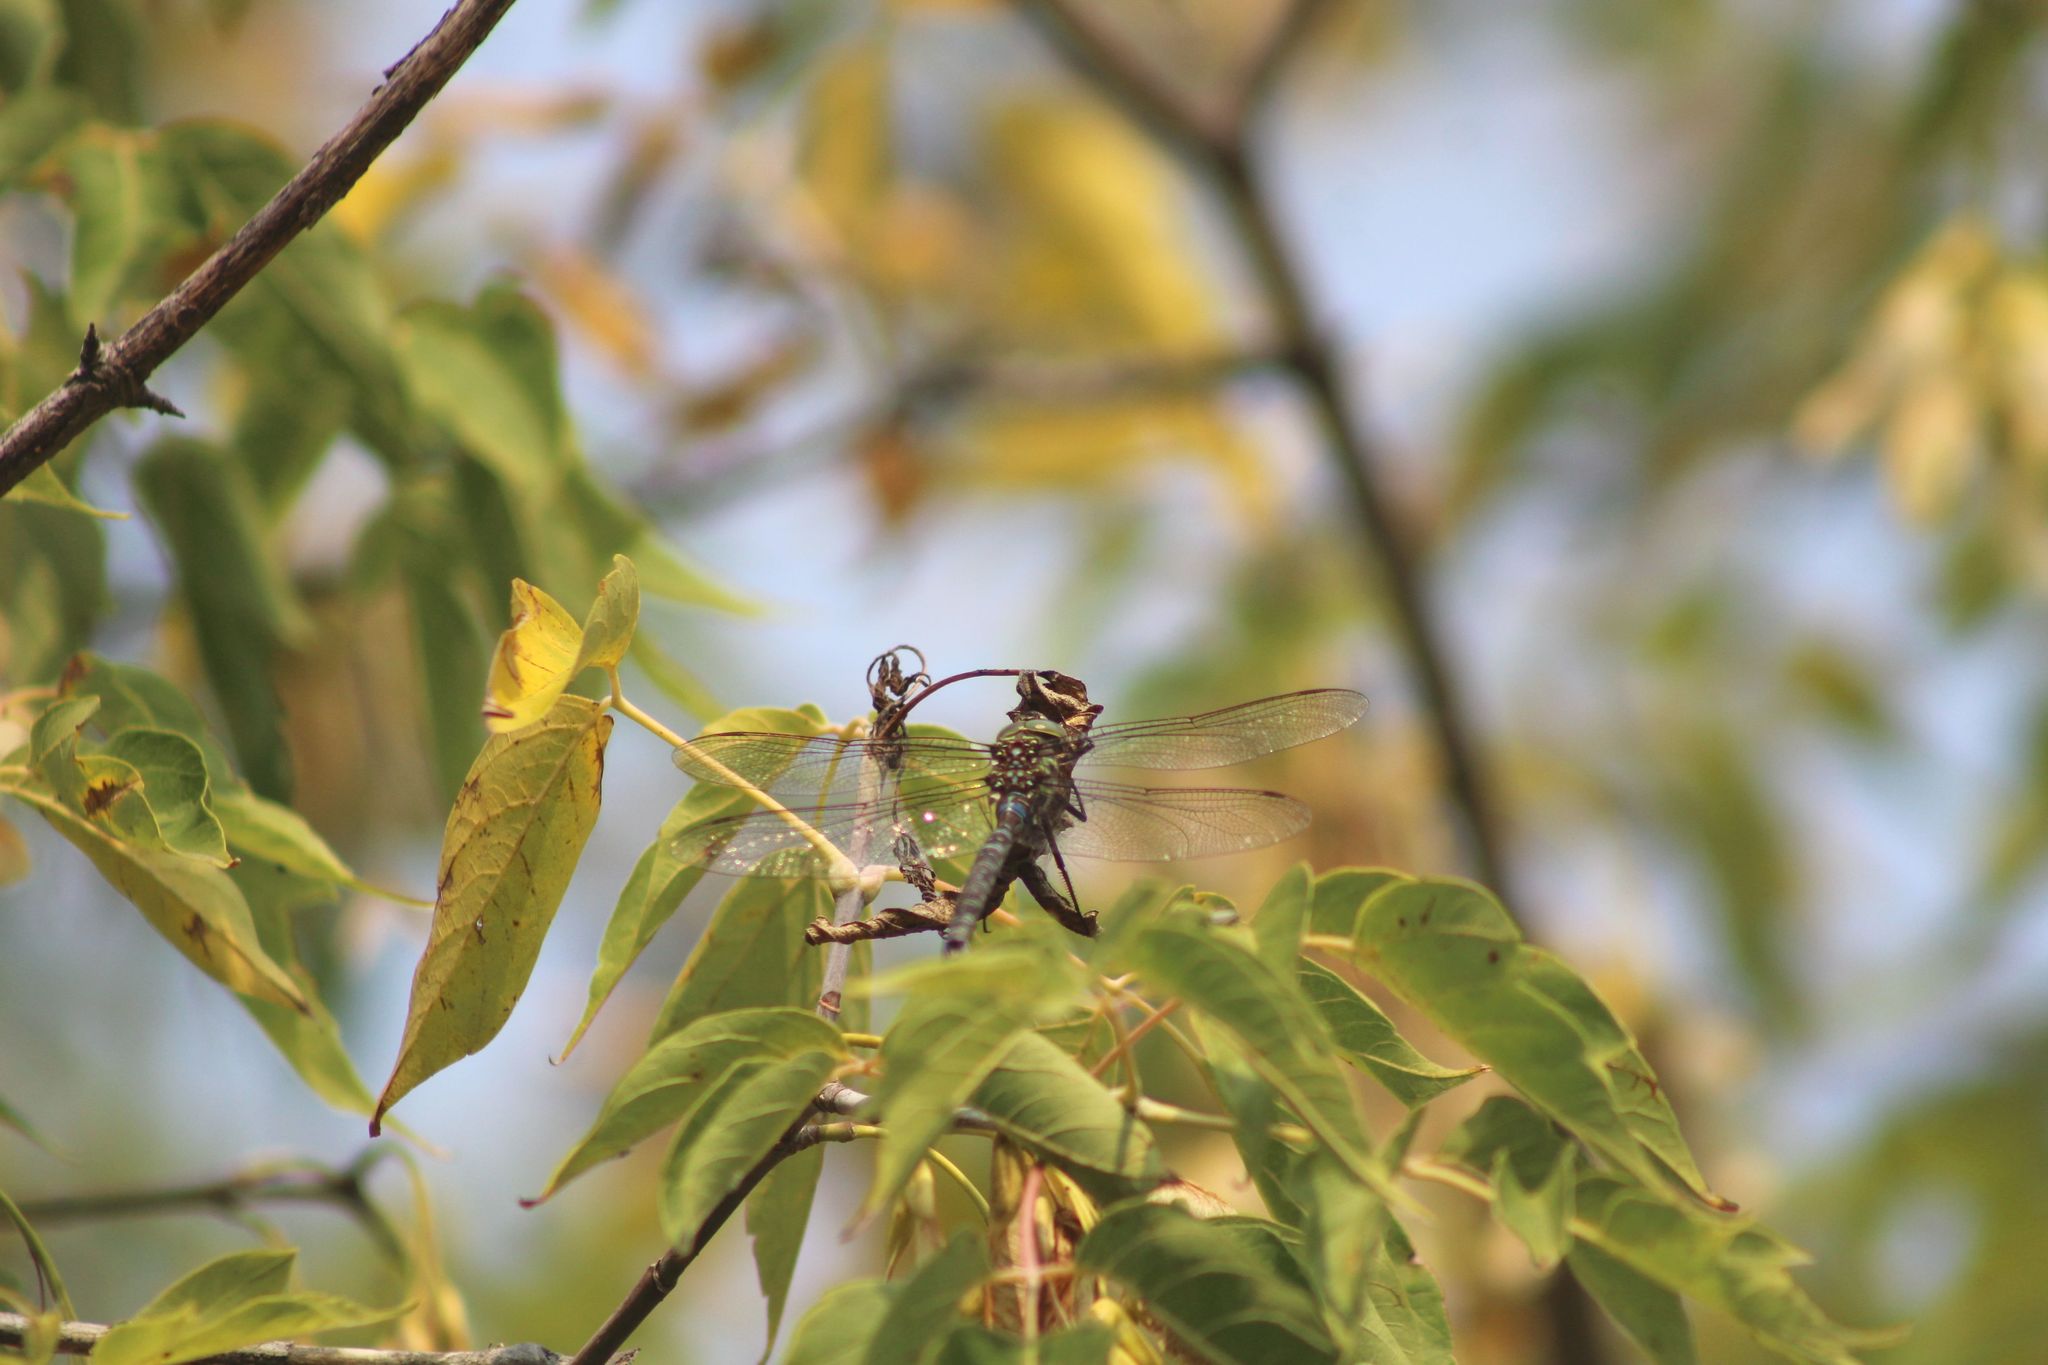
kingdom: Animalia
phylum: Arthropoda
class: Insecta
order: Odonata
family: Aeshnidae
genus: Aeshna
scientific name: Aeshna umbrosa
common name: Shadow darner
